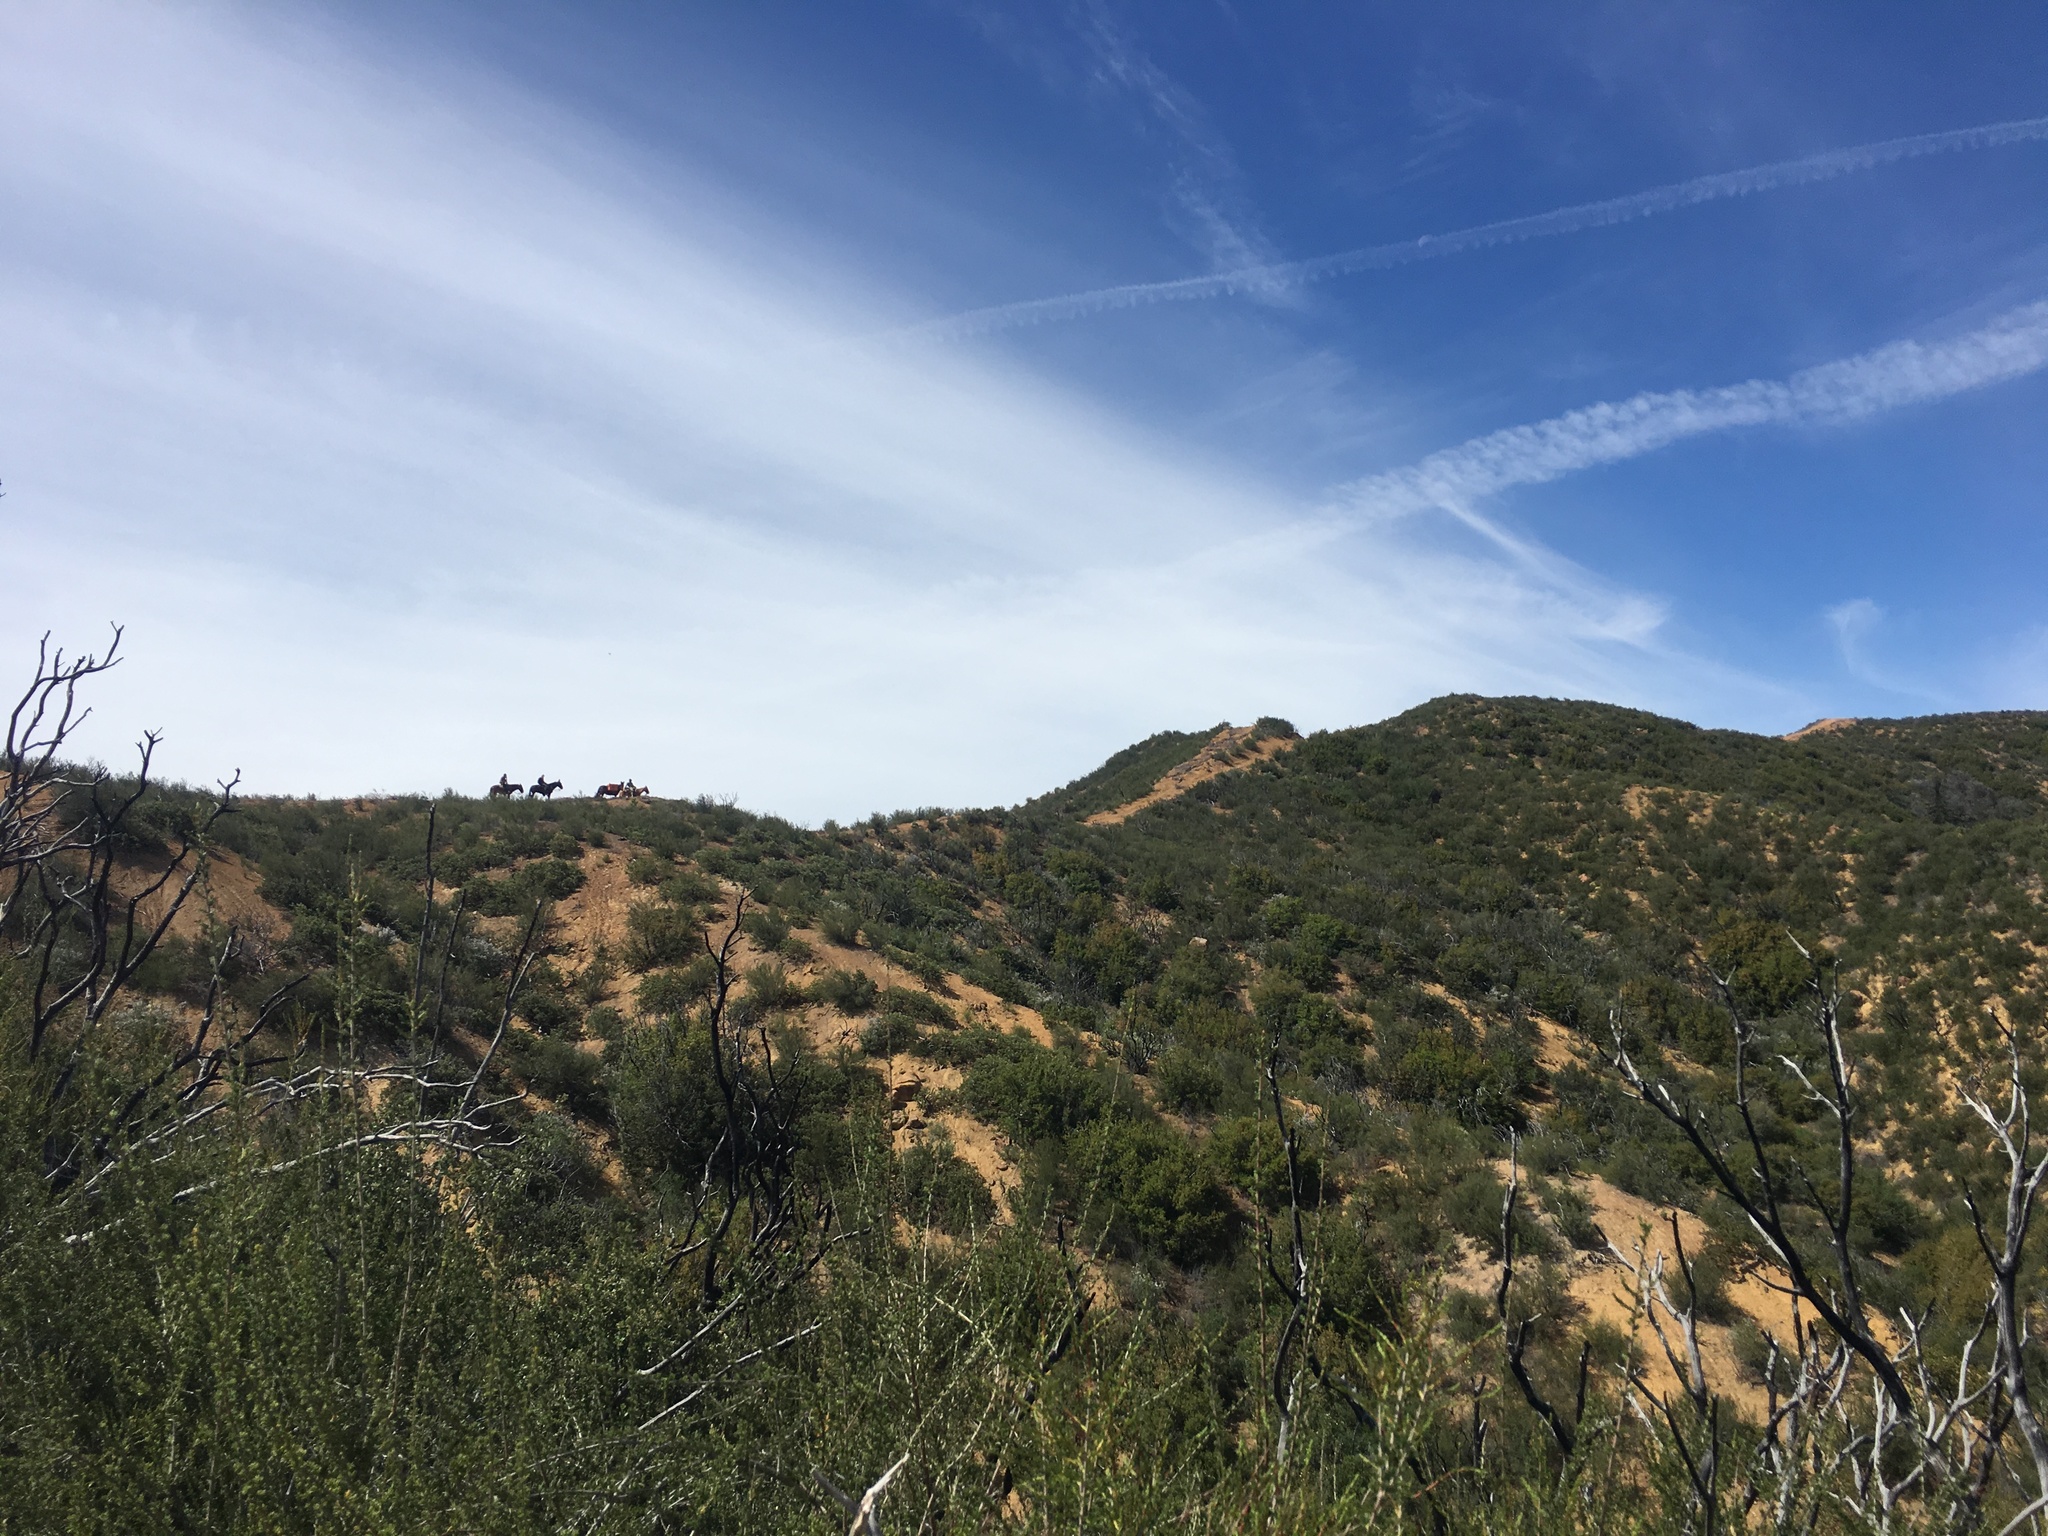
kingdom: Plantae
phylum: Tracheophyta
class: Magnoliopsida
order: Rosales
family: Rosaceae
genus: Adenostoma
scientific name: Adenostoma fasciculatum
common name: Chamise
